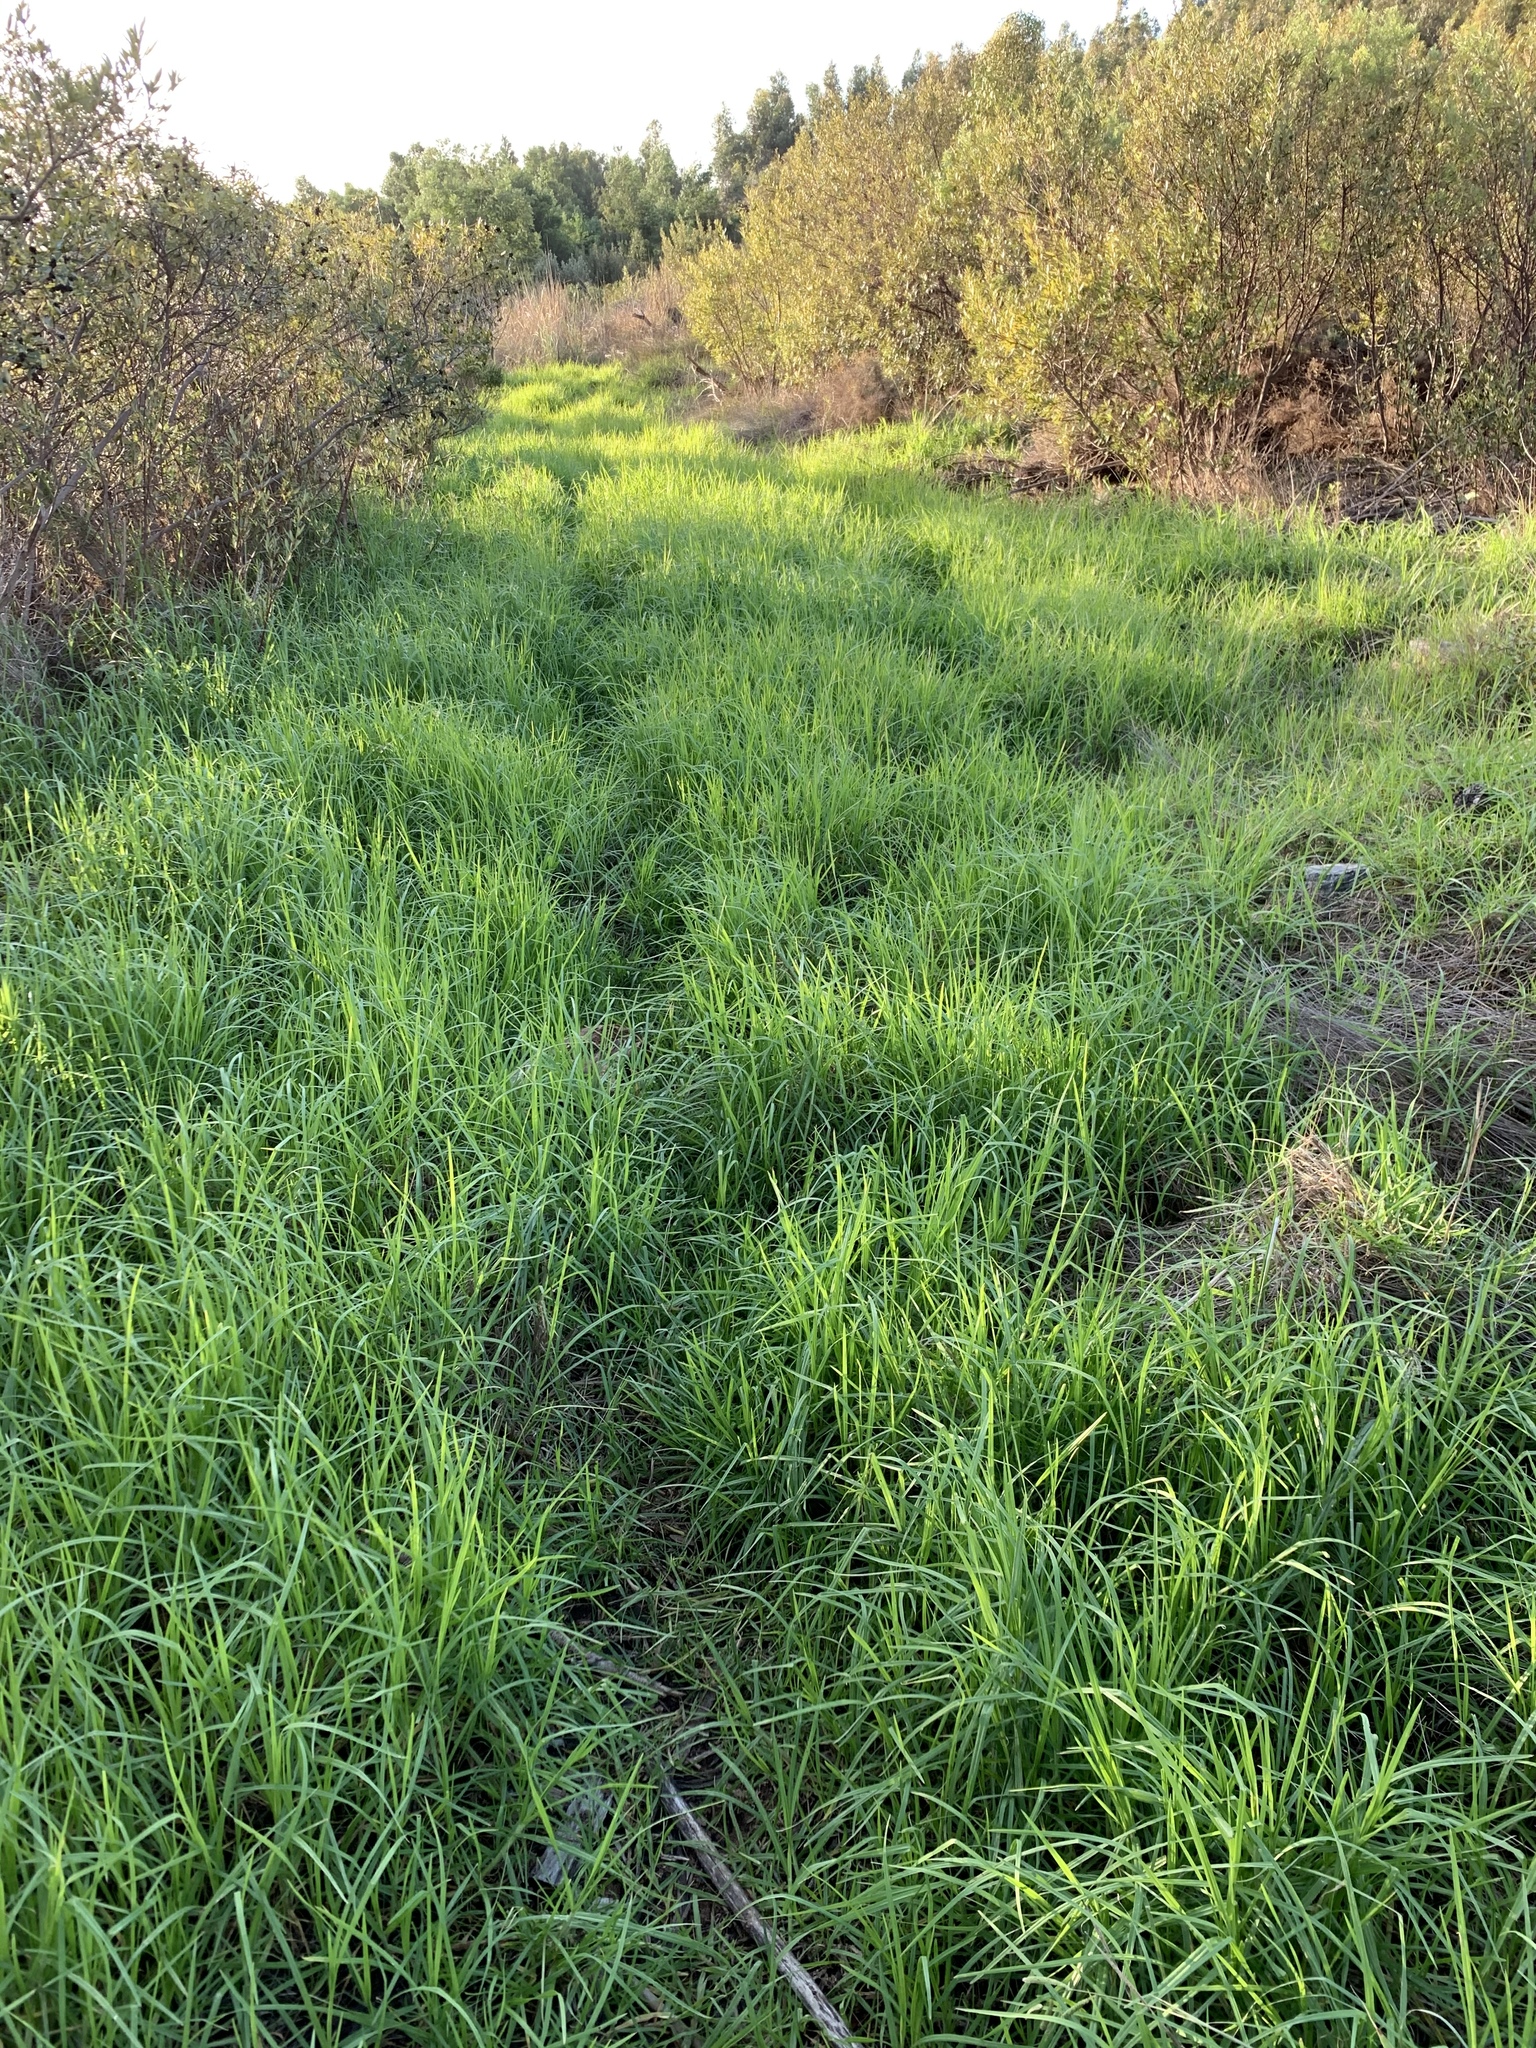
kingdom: Plantae
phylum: Tracheophyta
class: Liliopsida
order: Poales
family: Poaceae
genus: Cenchrus
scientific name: Cenchrus clandestinus
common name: Kikuyugrass
